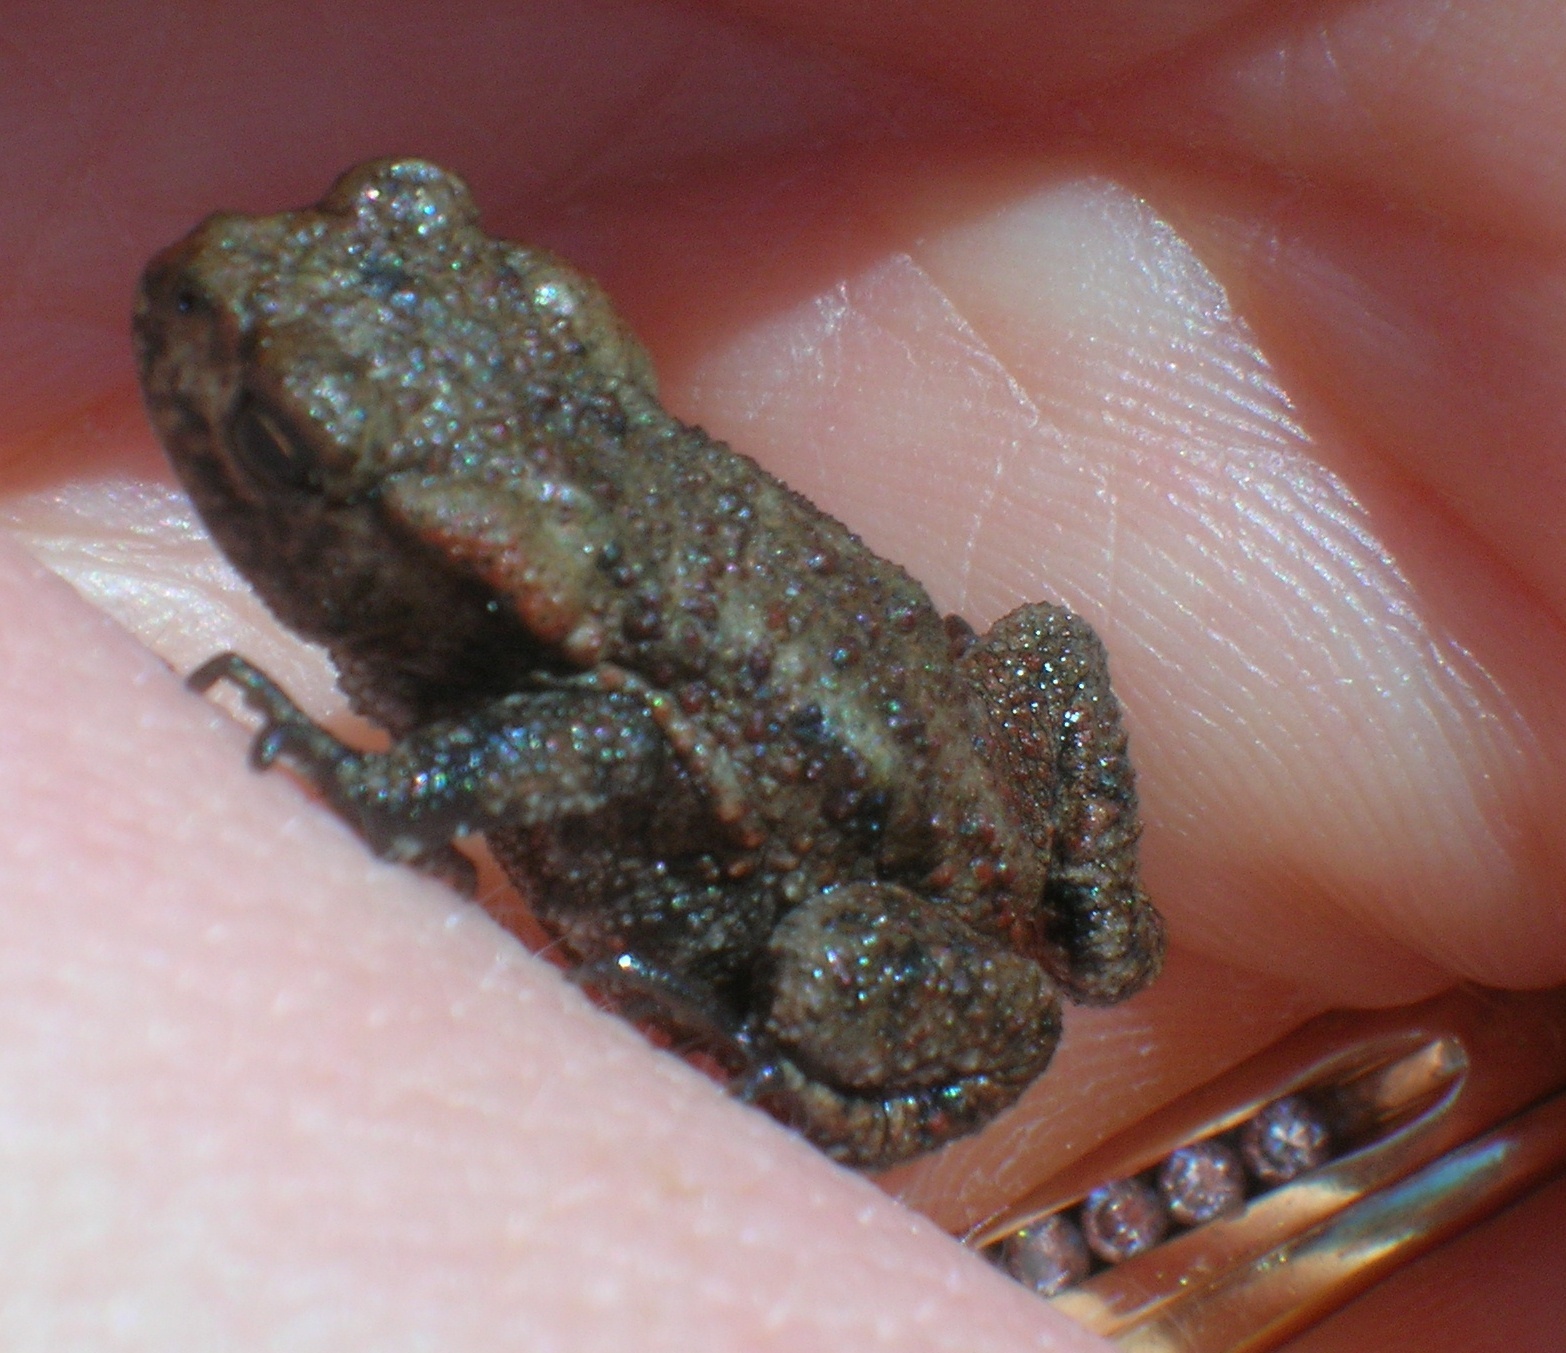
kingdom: Animalia
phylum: Chordata
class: Amphibia
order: Anura
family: Bufonidae
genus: Bufo
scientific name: Bufo bufo
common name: Common toad
